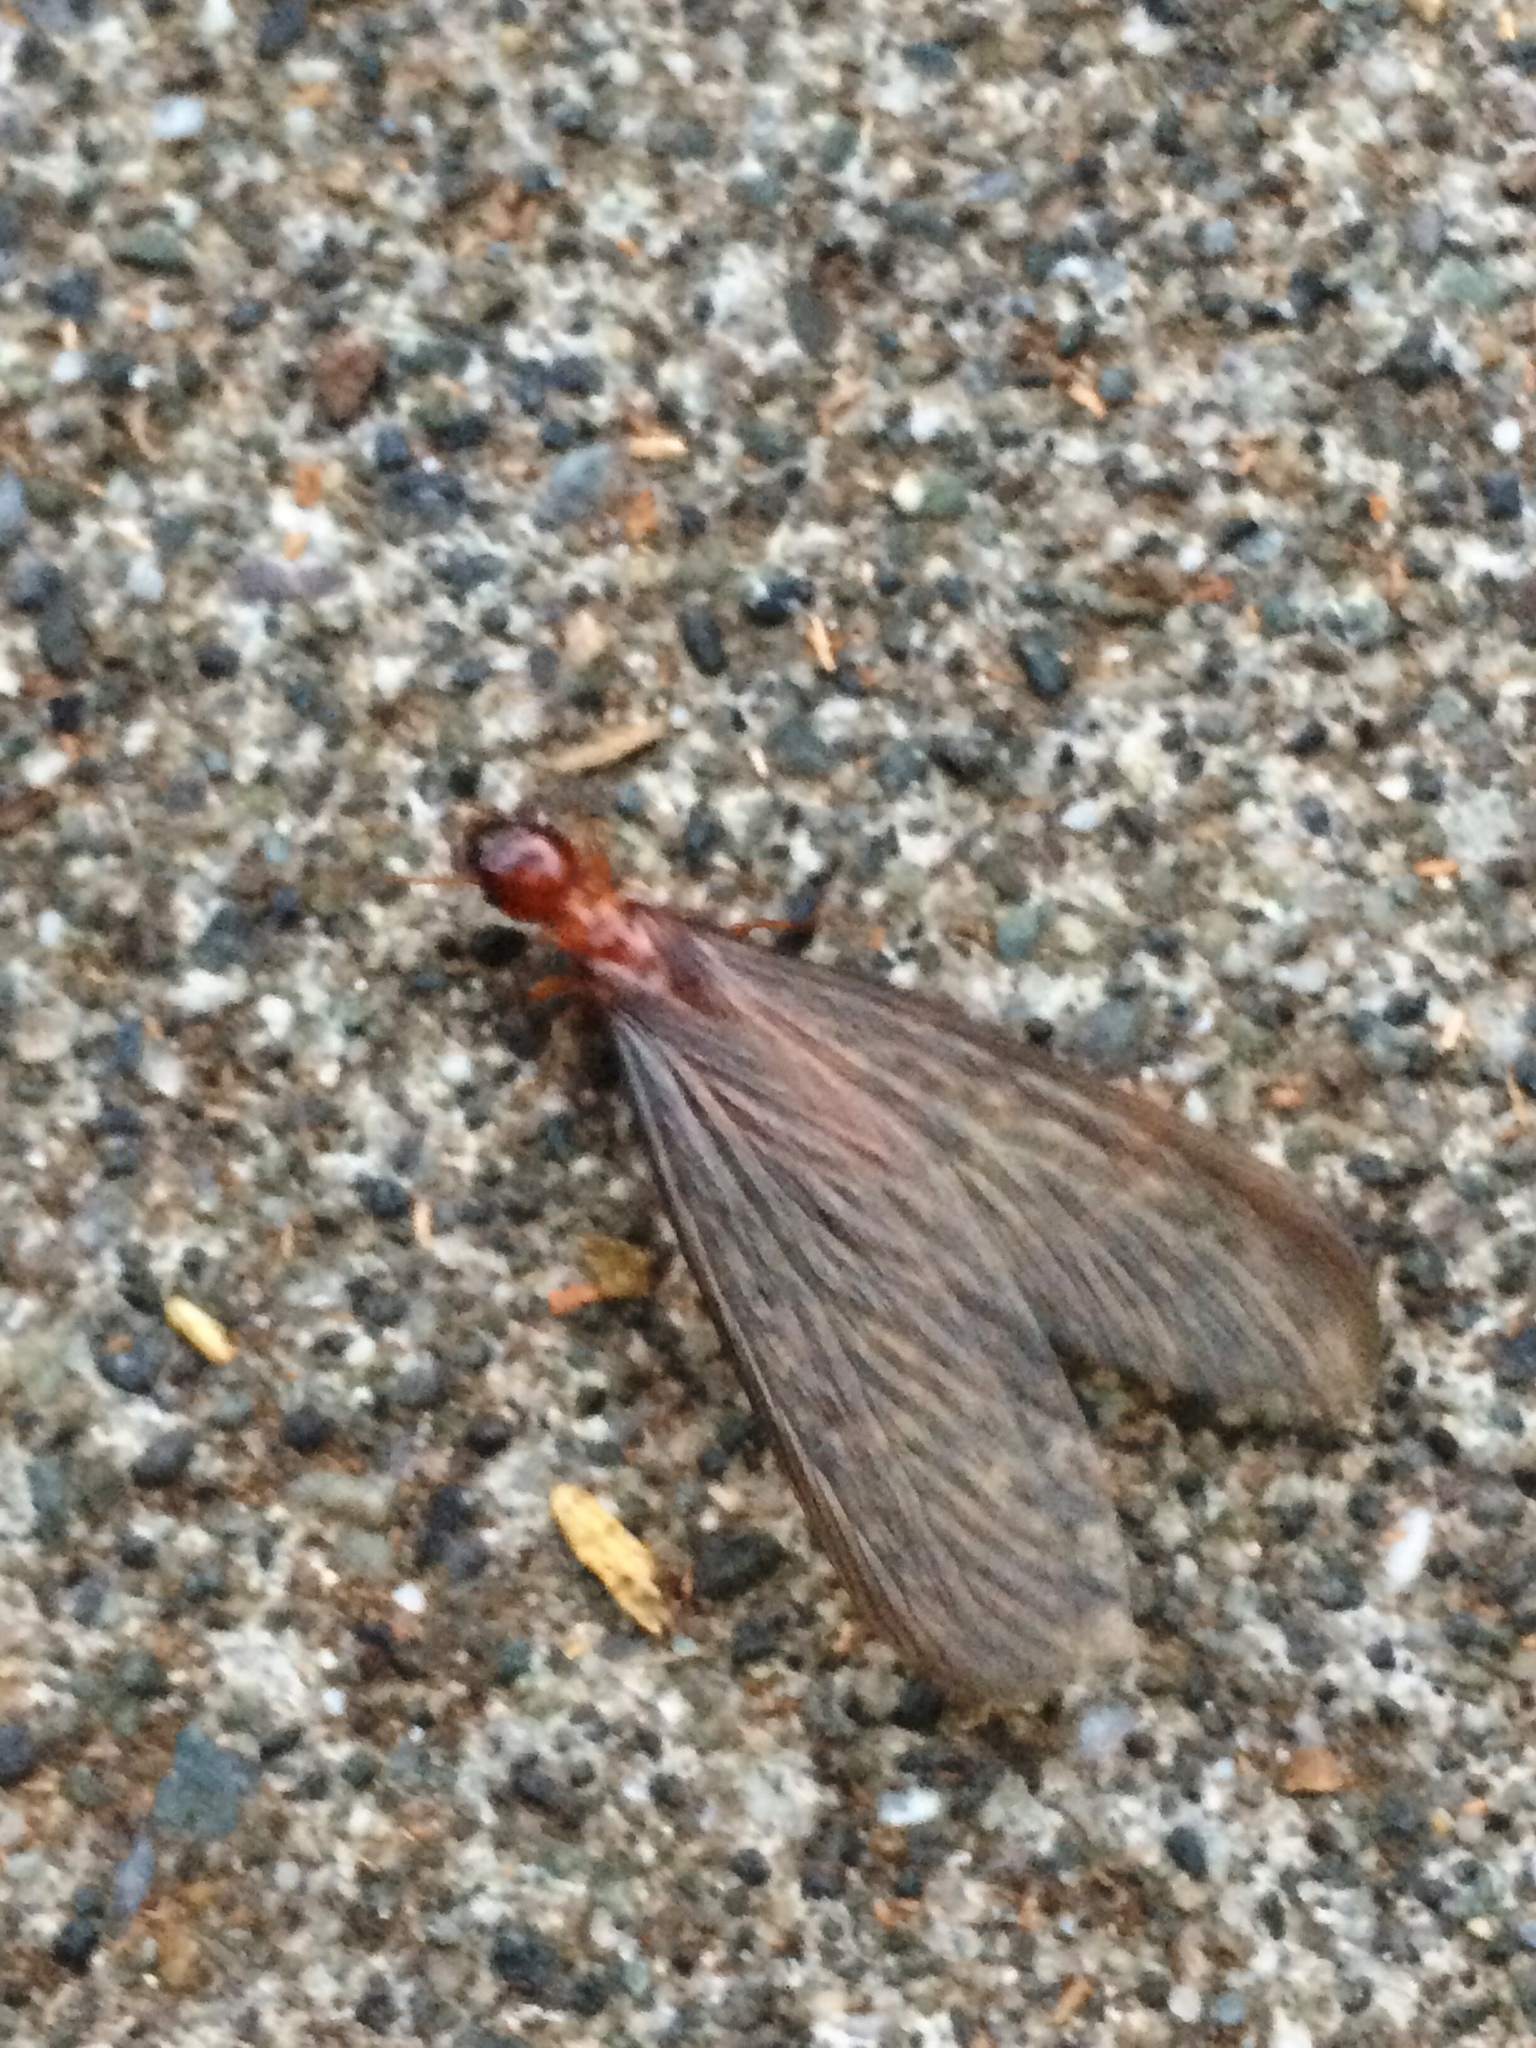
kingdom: Animalia
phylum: Arthropoda
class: Insecta
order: Blattodea
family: Archotermopsidae
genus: Zootermopsis
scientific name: Zootermopsis angusticollis
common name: Rottenwood termite
